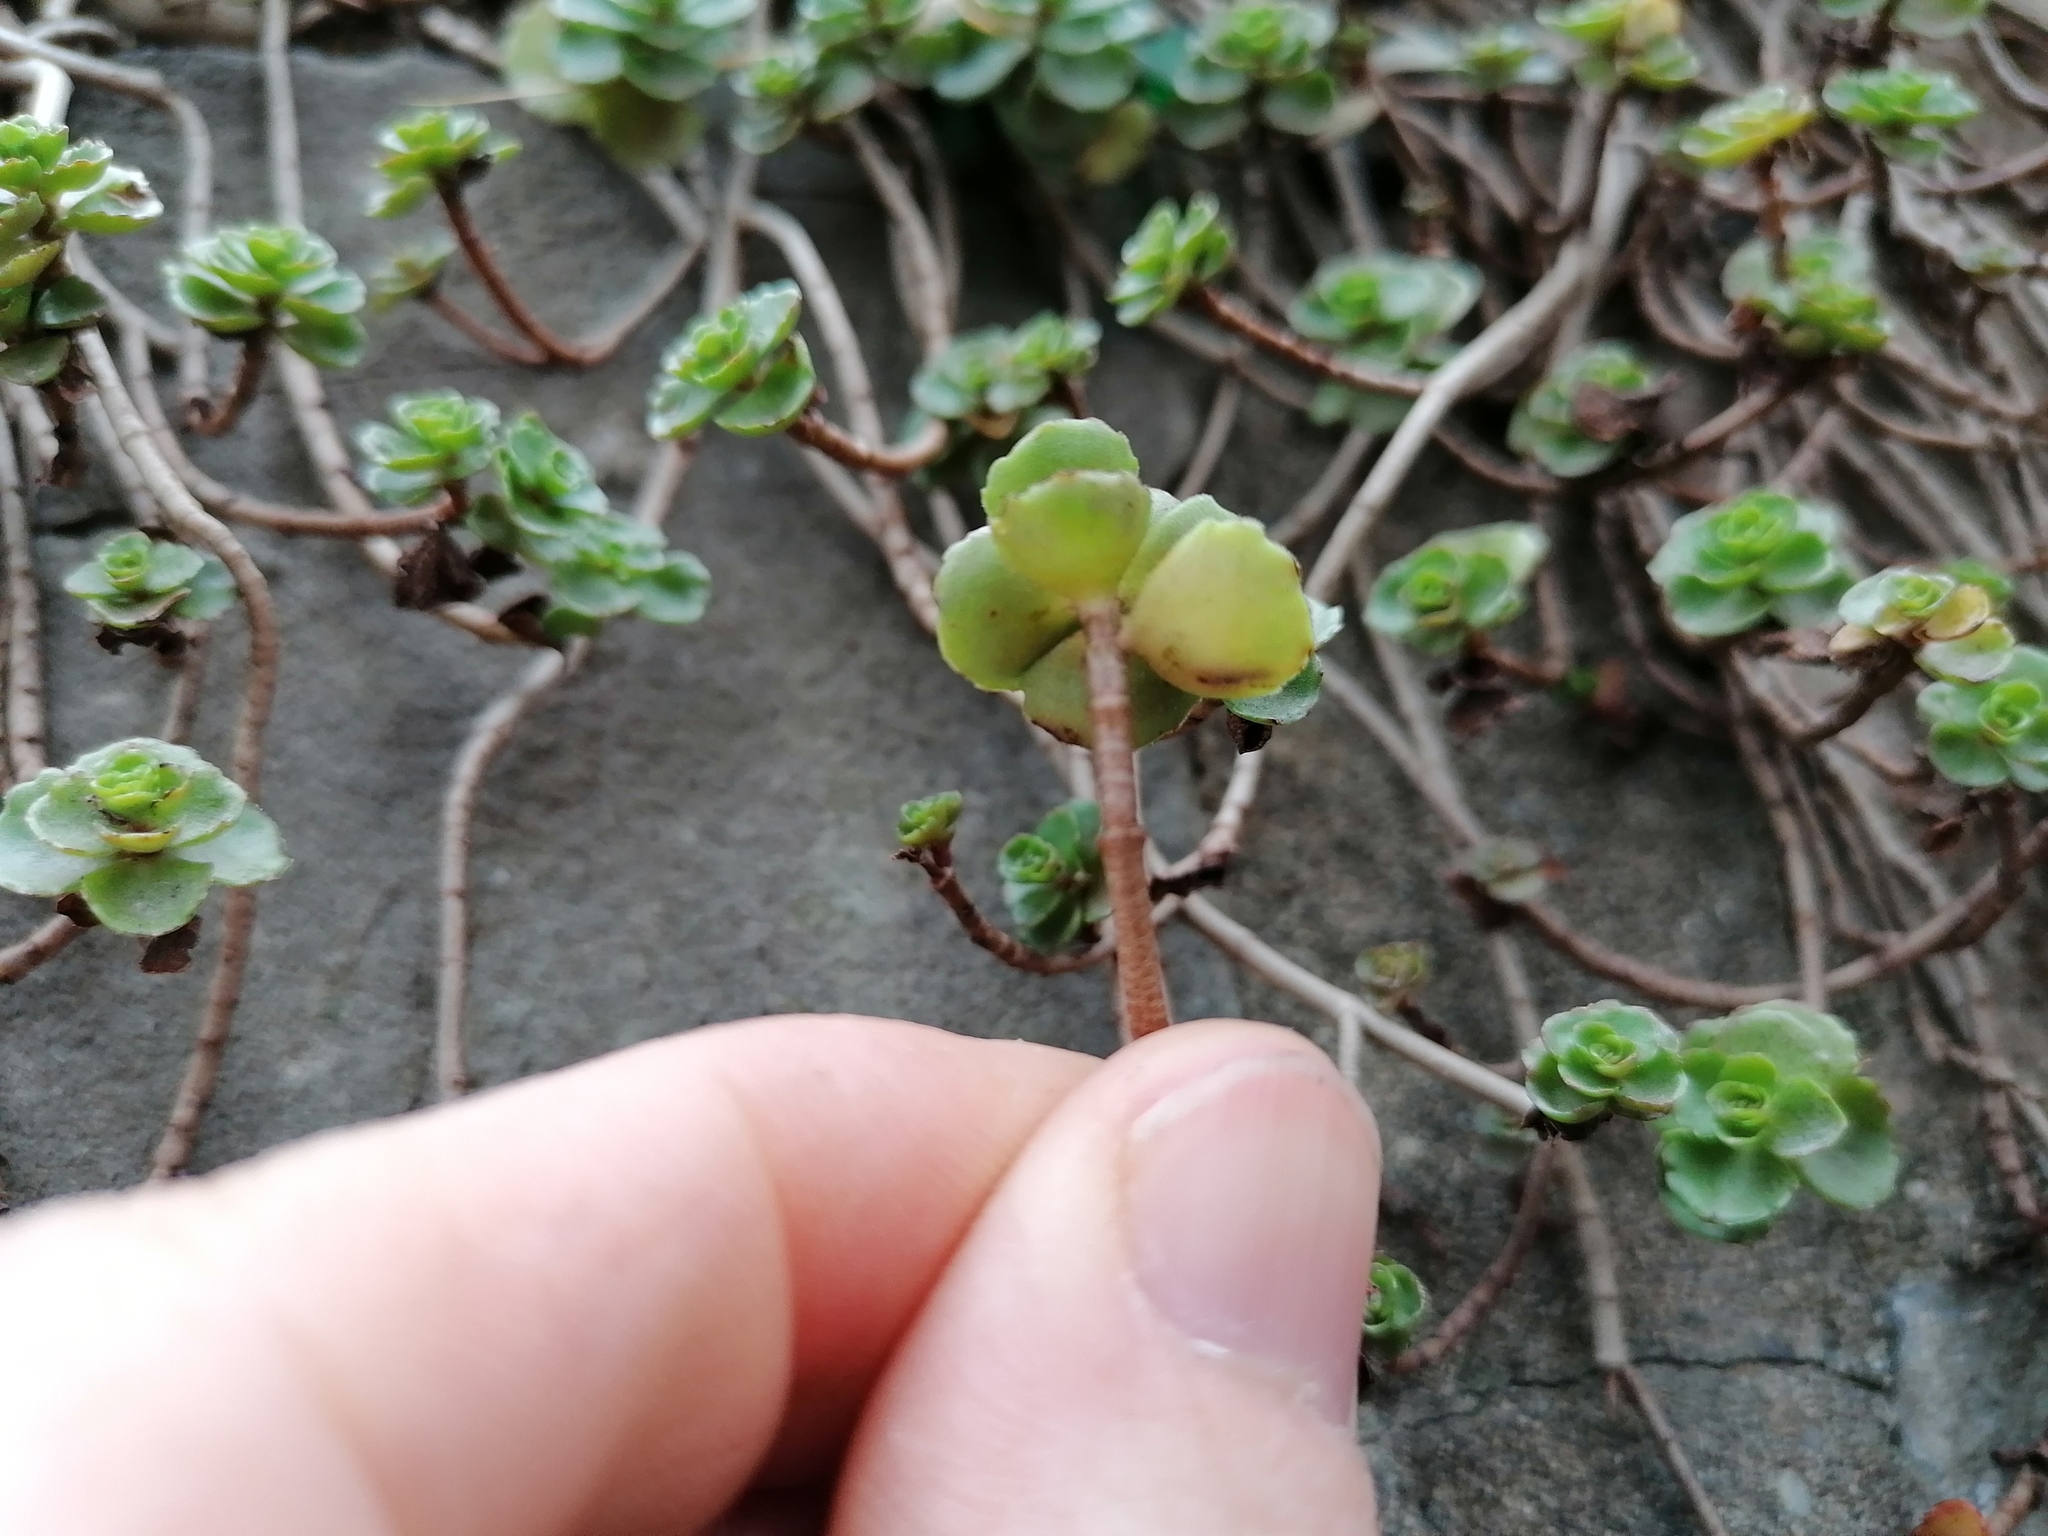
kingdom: Plantae
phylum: Tracheophyta
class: Magnoliopsida
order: Saxifragales
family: Crassulaceae
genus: Phedimus
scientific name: Phedimus spurius
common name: Caucasian stonecrop
